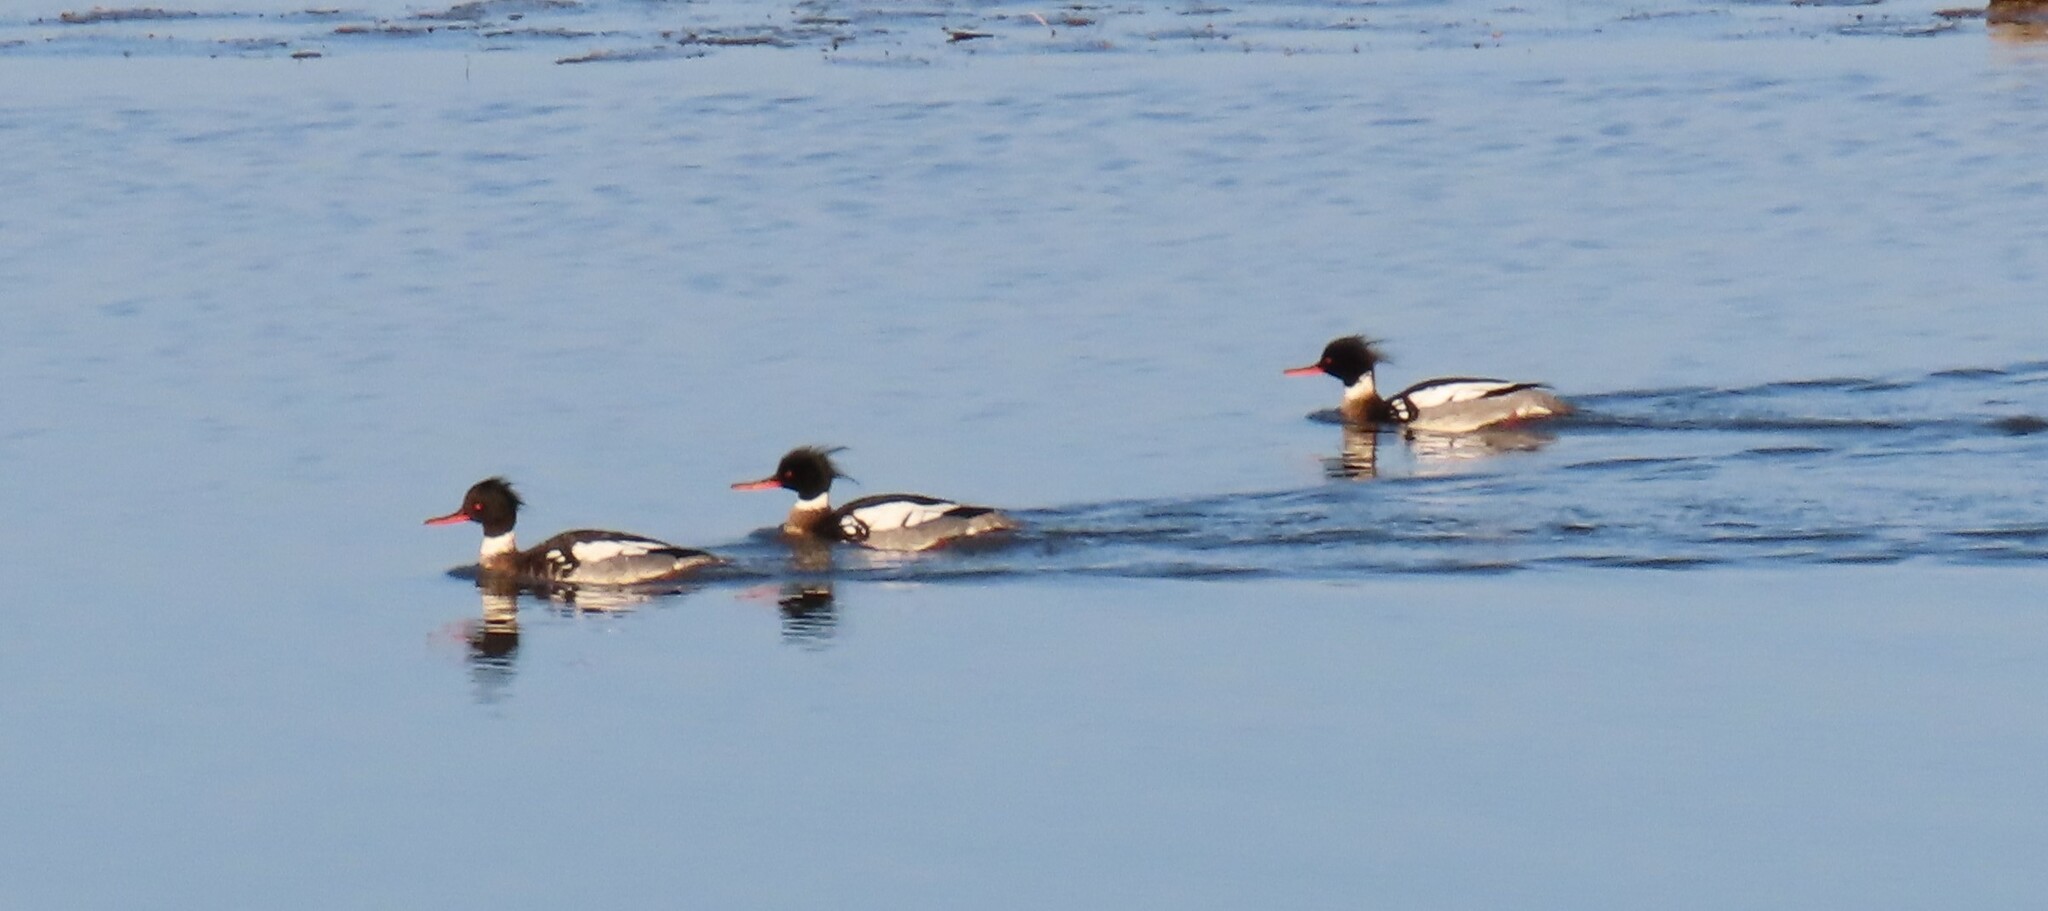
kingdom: Animalia
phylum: Chordata
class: Aves
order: Anseriformes
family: Anatidae
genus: Mergus
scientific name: Mergus serrator
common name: Red-breasted merganser
